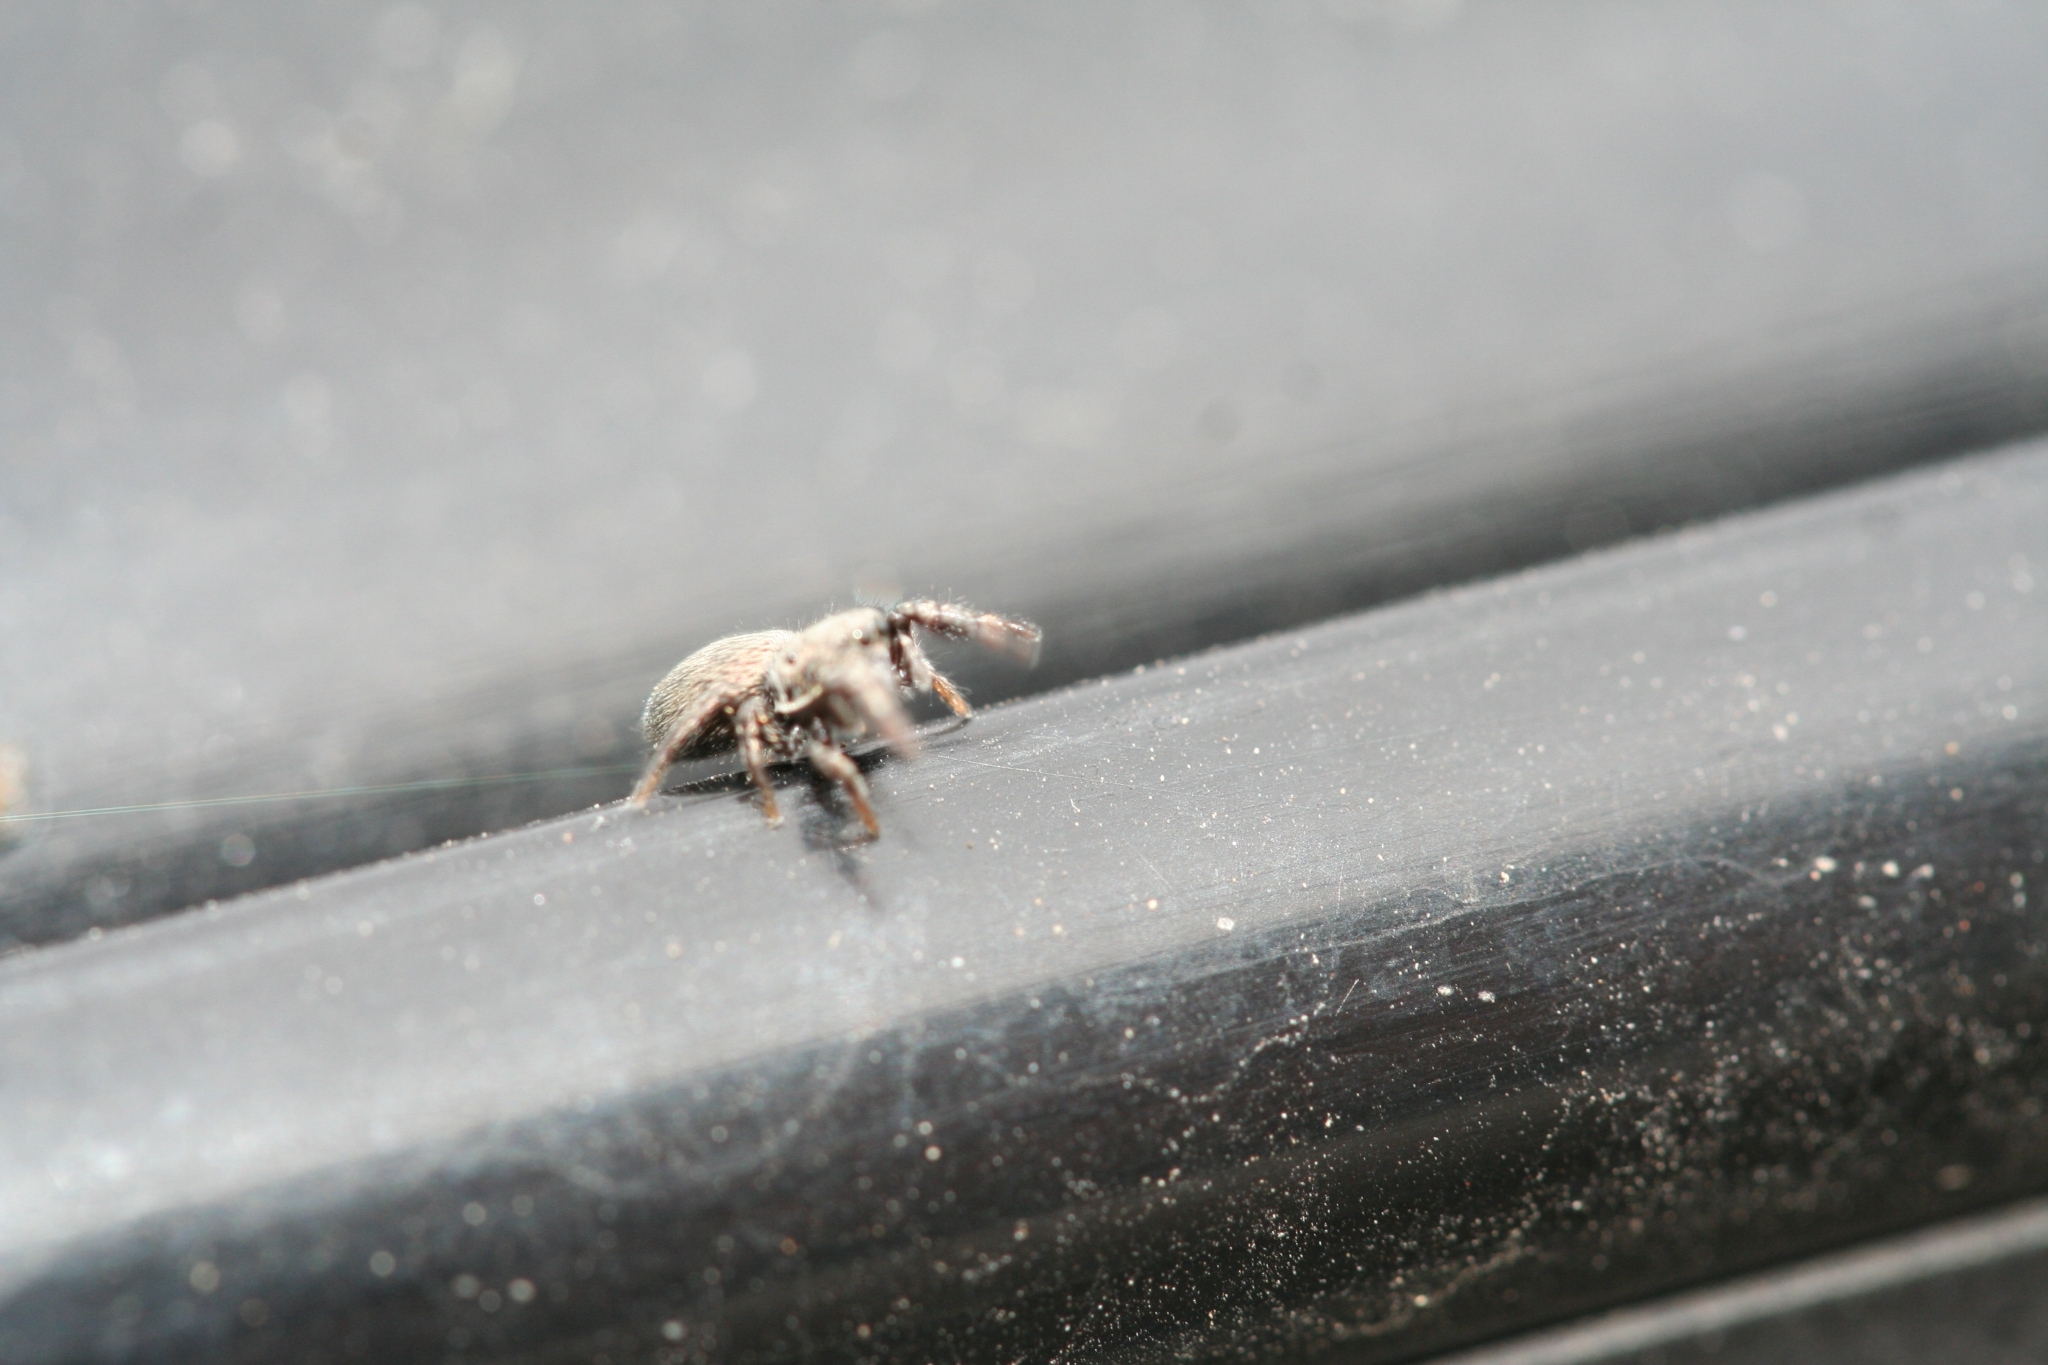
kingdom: Animalia
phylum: Arthropoda
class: Arachnida
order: Araneae
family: Salticidae
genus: Sibianor
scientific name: Sibianor aurocinctus
